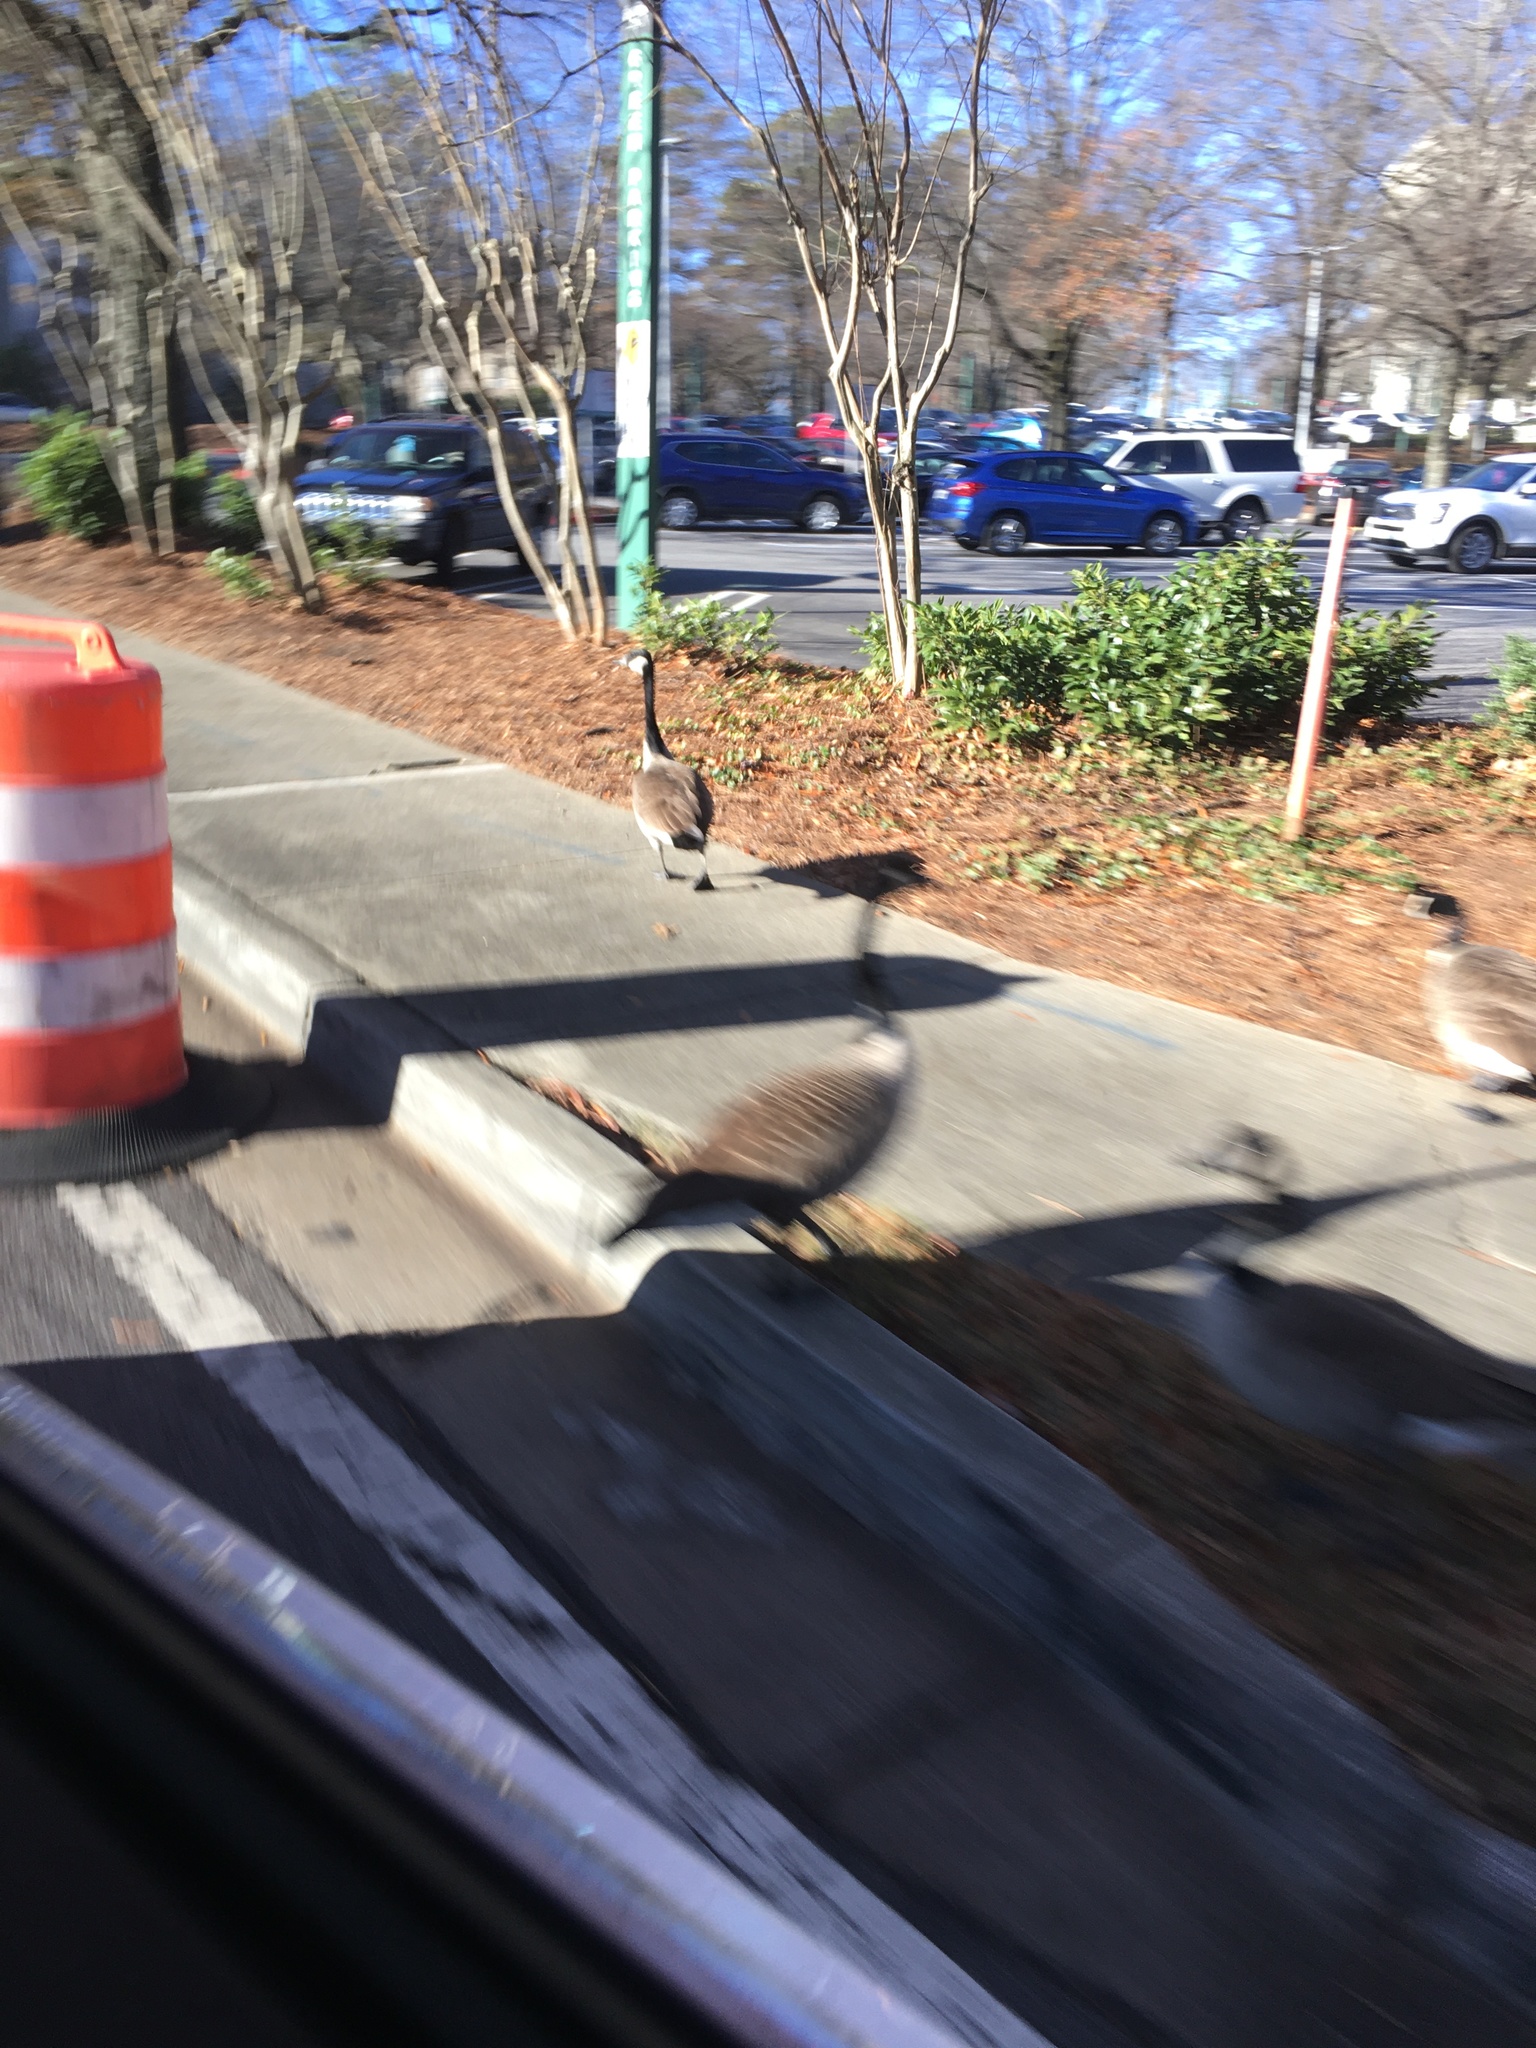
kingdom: Animalia
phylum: Chordata
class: Aves
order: Anseriformes
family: Anatidae
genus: Branta
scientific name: Branta canadensis
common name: Canada goose
